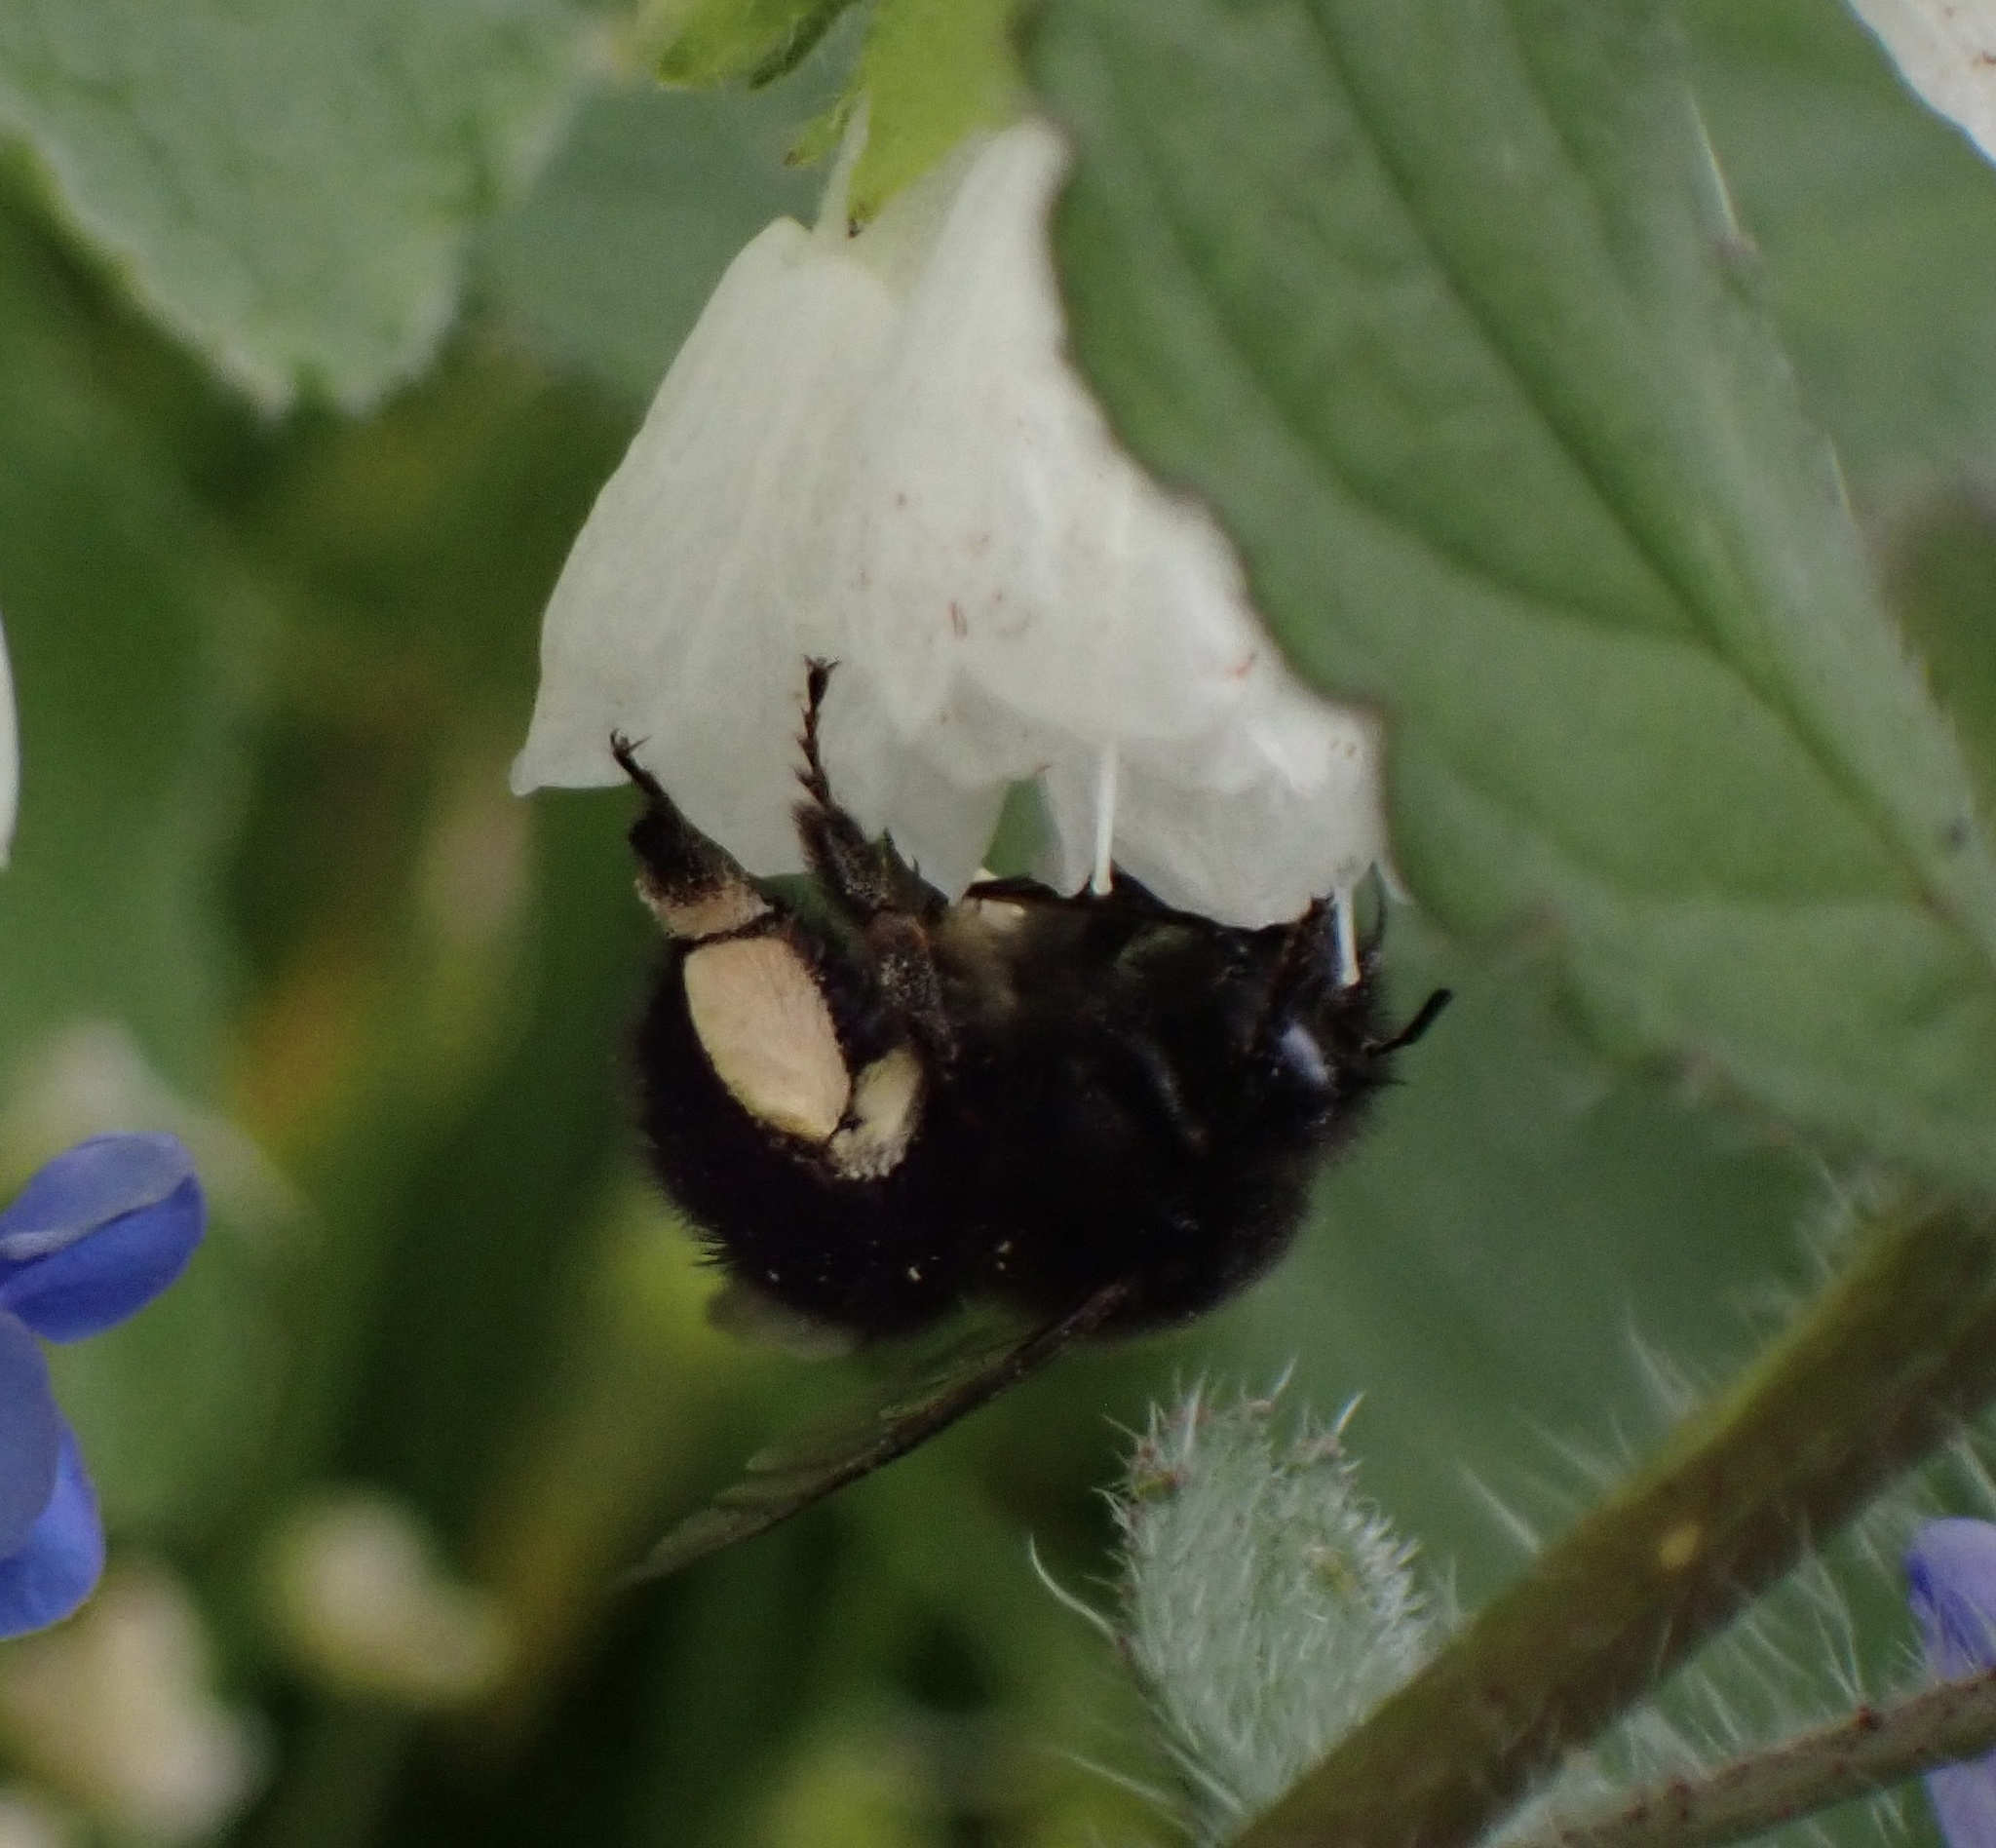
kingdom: Animalia
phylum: Arthropoda
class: Insecta
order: Hymenoptera
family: Apidae
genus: Anthophora
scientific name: Anthophora plumipes
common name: Hairy-footed flower bee
